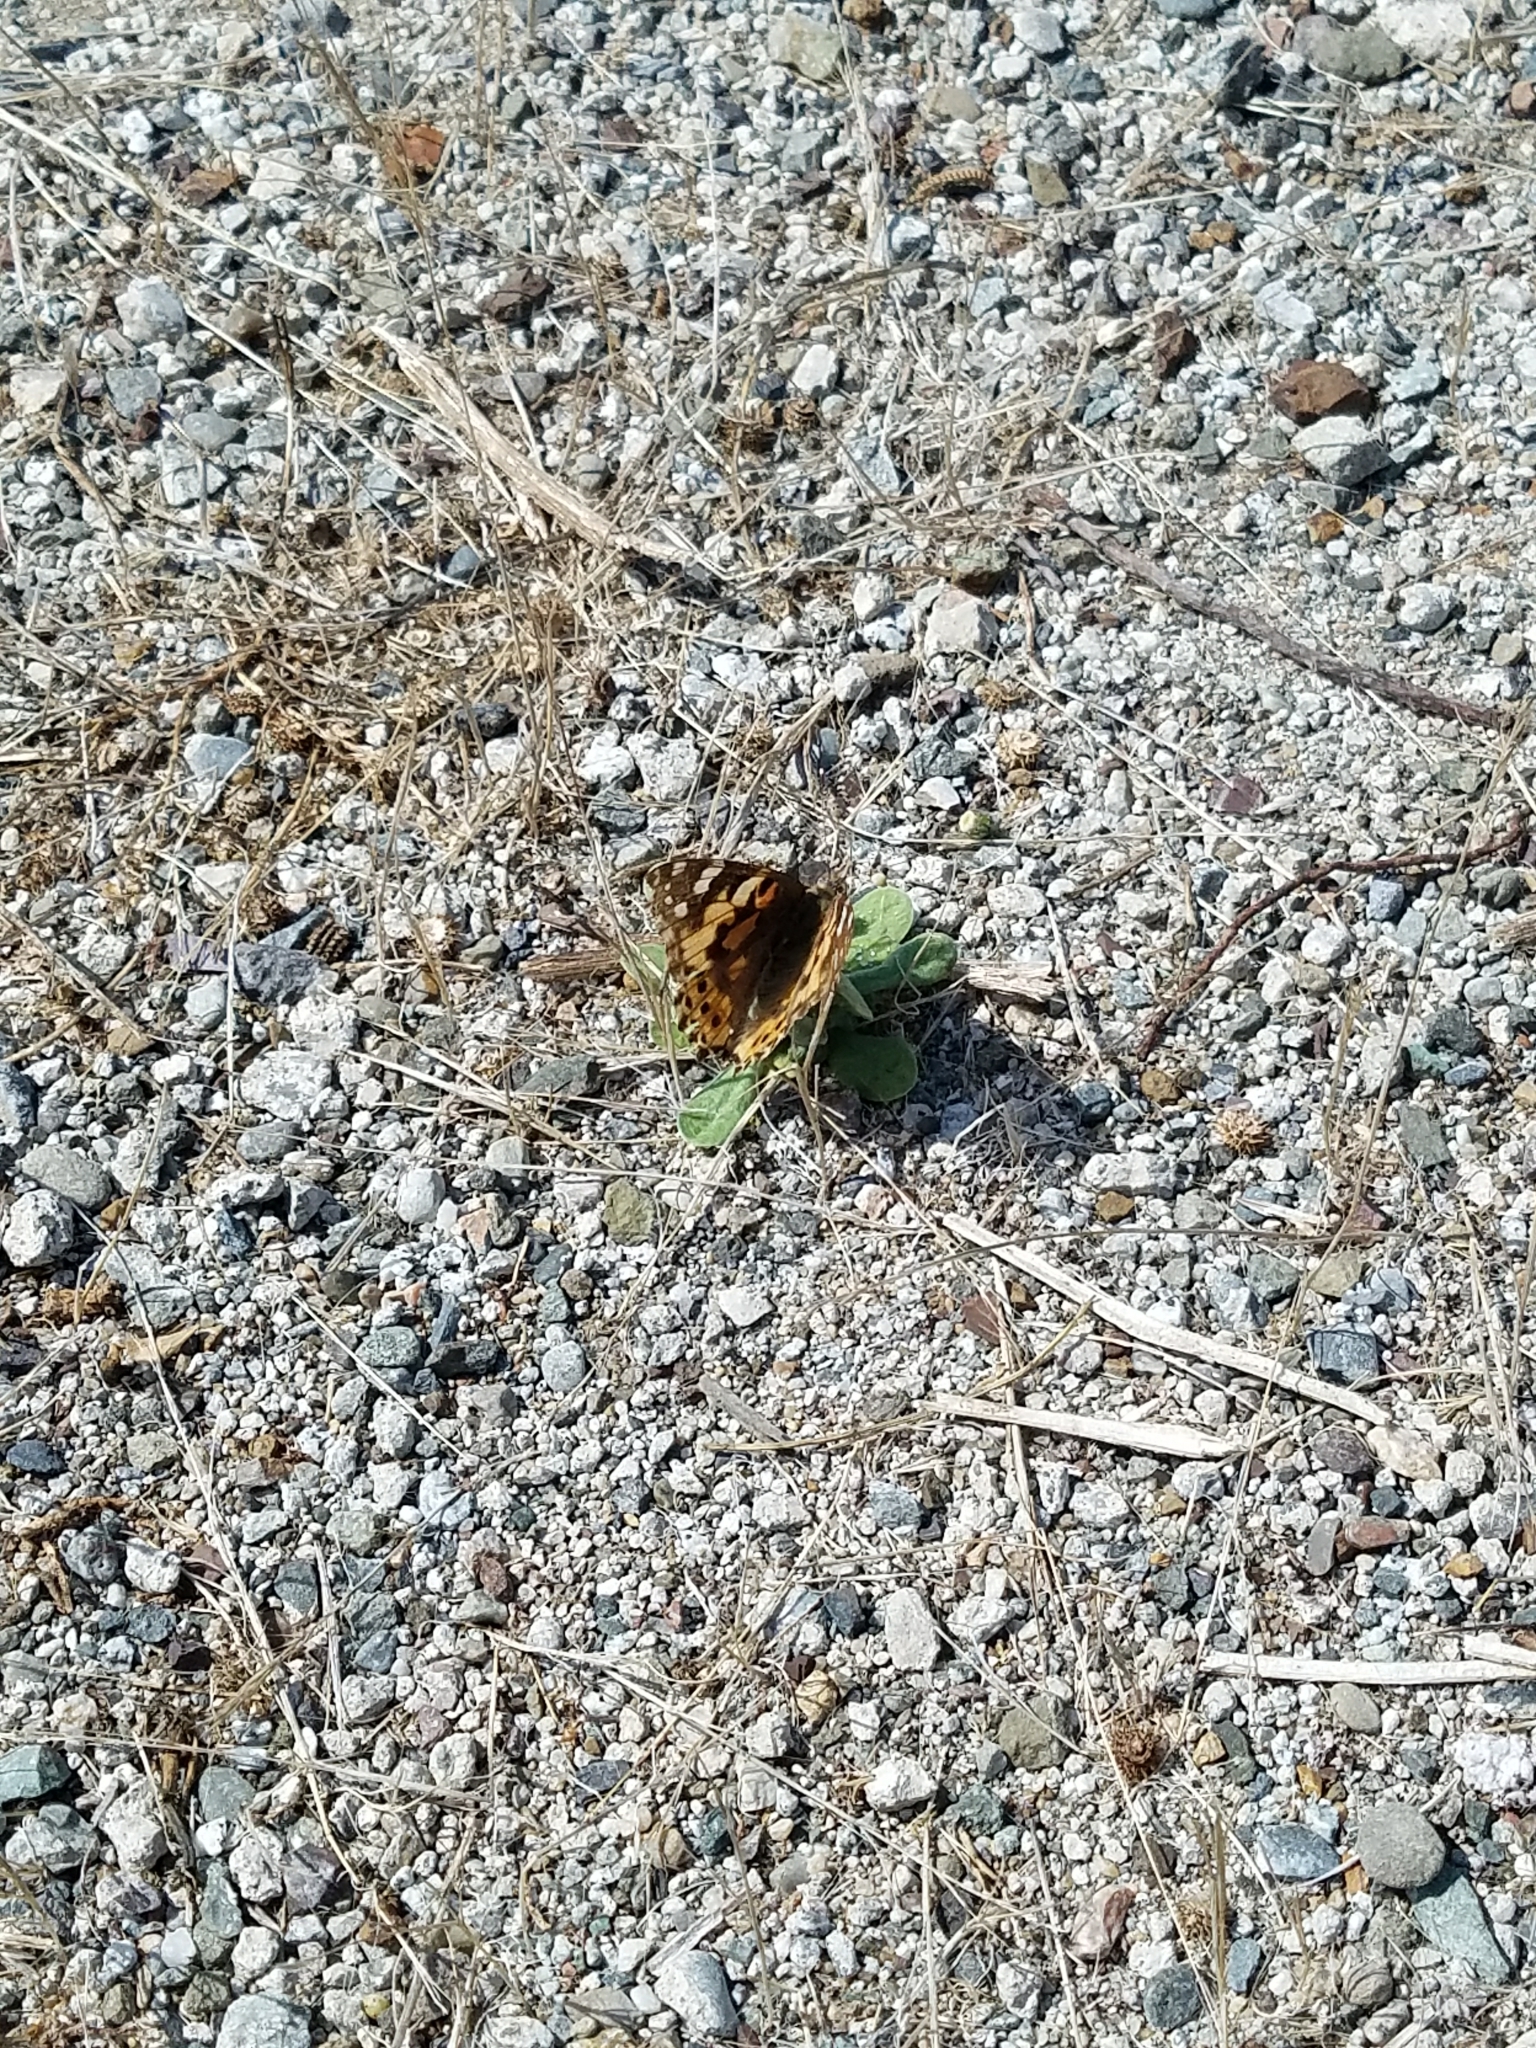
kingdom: Animalia
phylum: Arthropoda
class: Insecta
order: Lepidoptera
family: Nymphalidae
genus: Vanessa
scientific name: Vanessa cardui
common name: Painted lady
